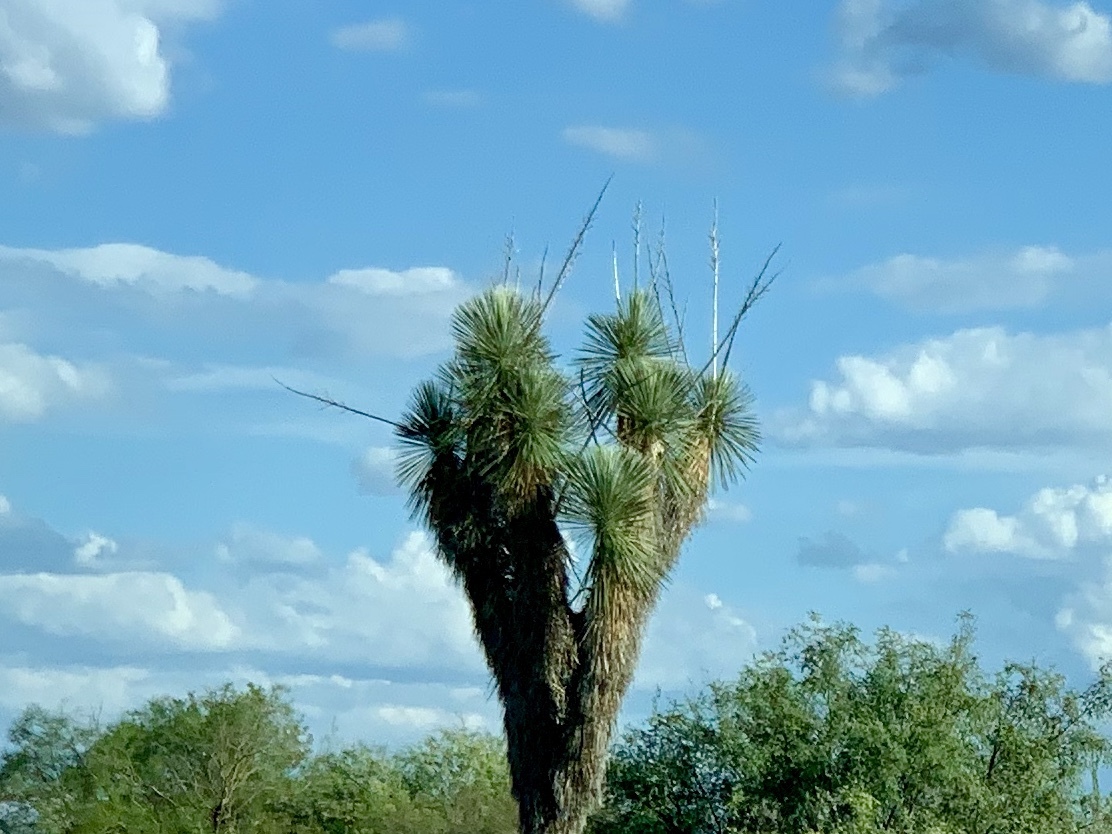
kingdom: Plantae
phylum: Tracheophyta
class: Liliopsida
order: Asparagales
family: Asparagaceae
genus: Yucca
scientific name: Yucca elata
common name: Palmella
